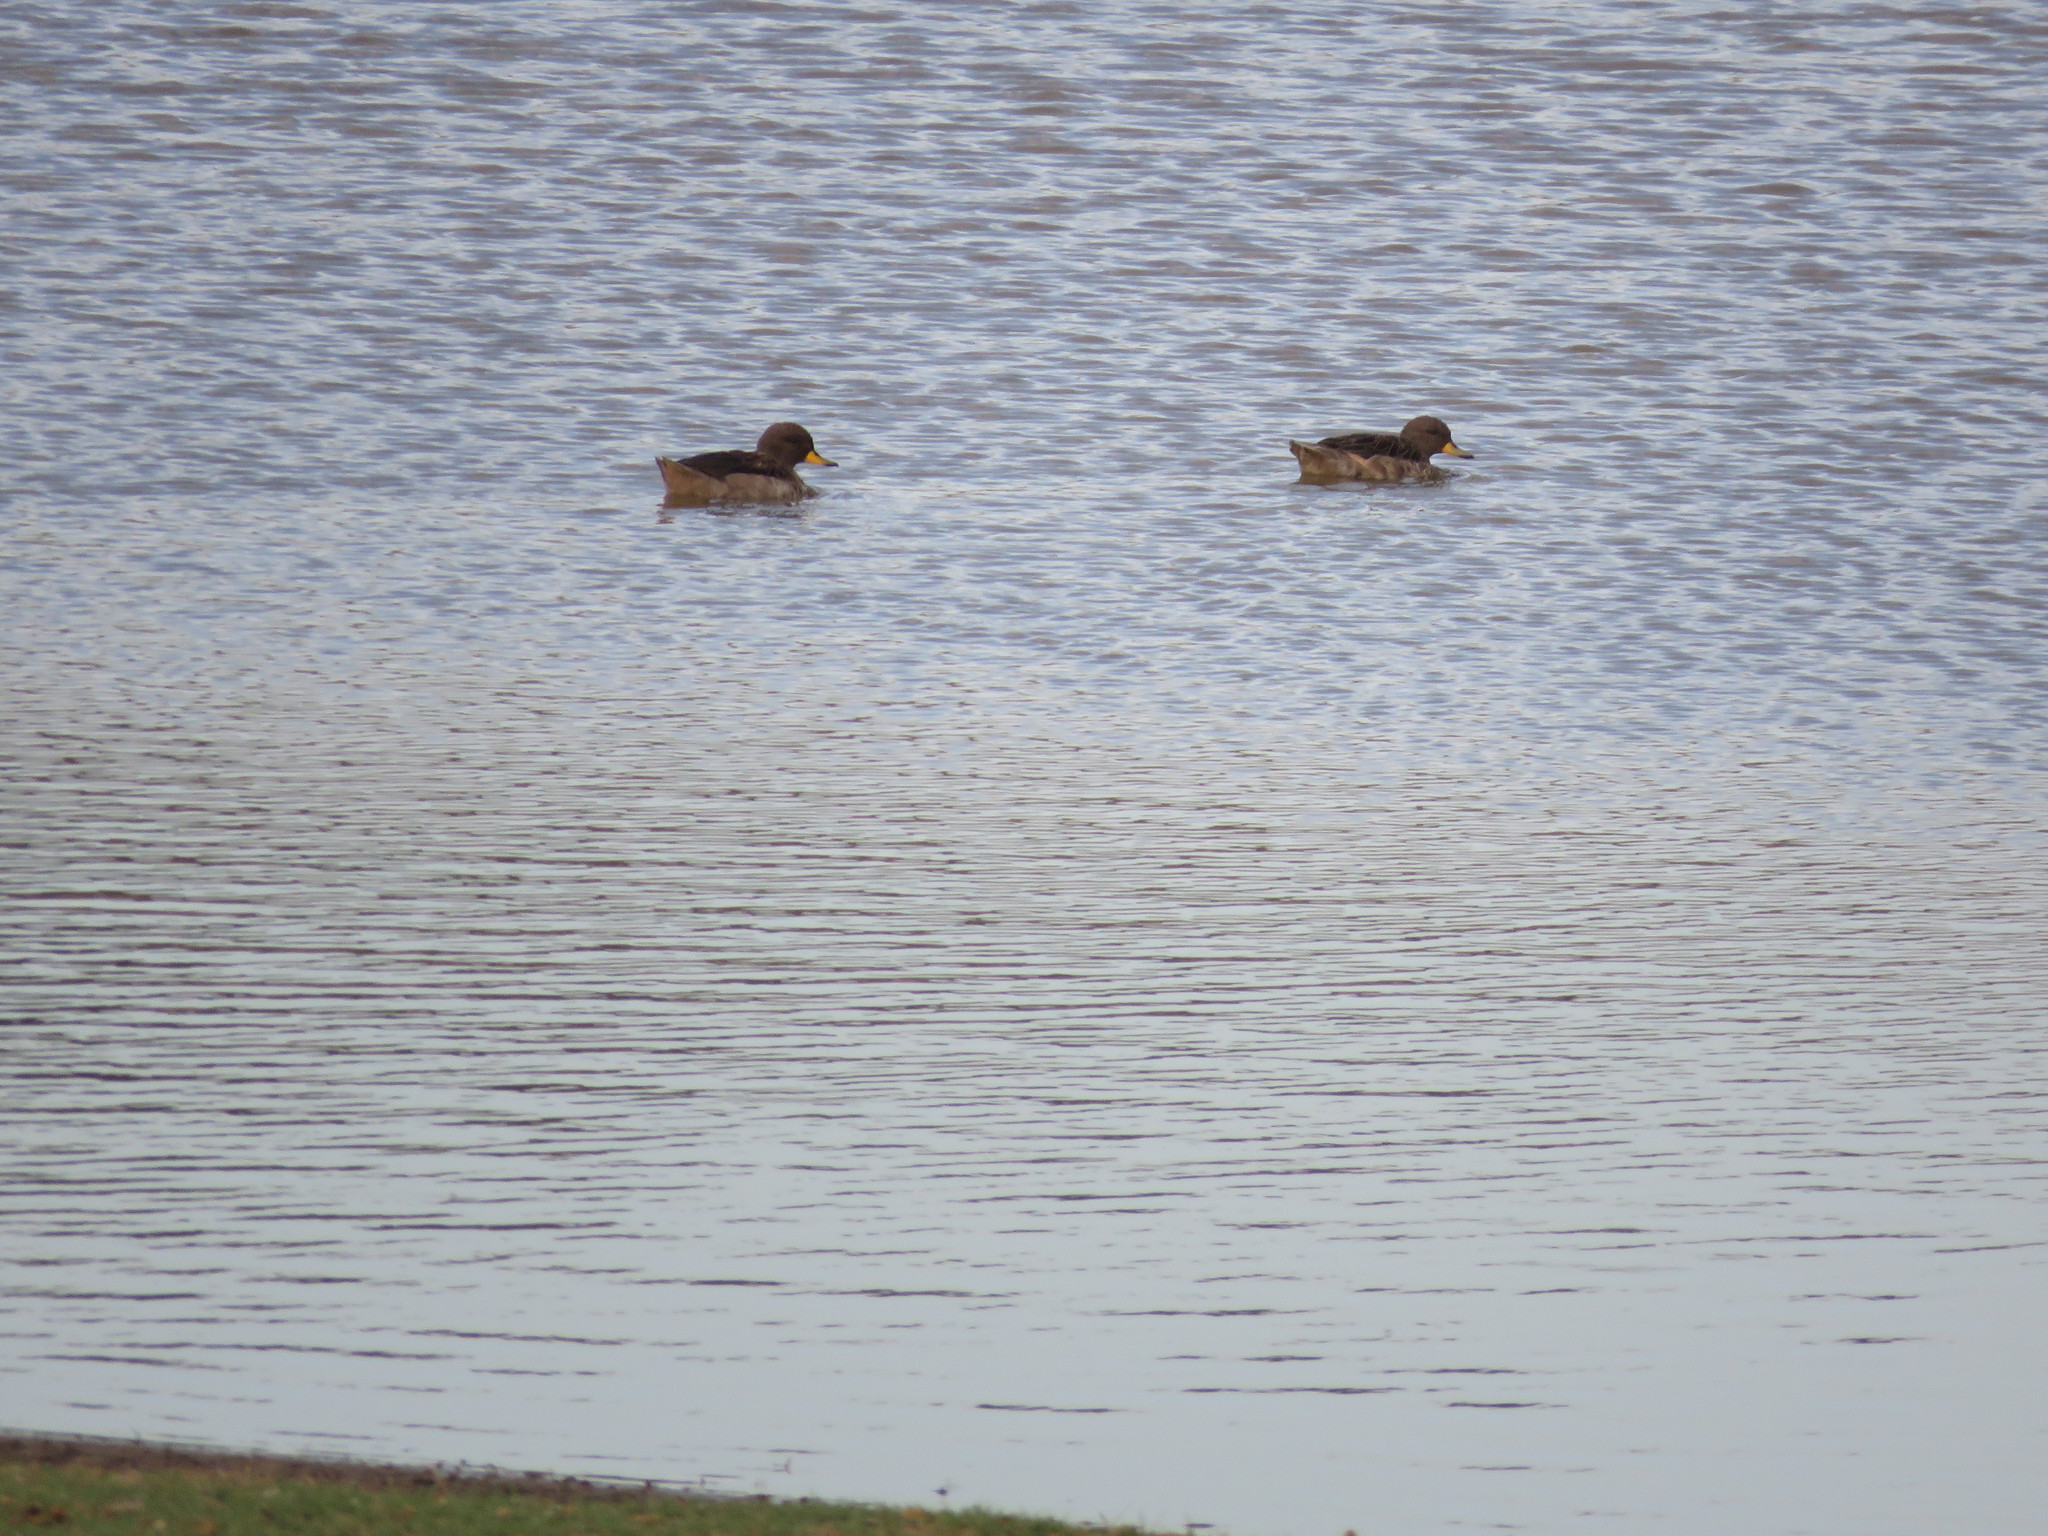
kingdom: Animalia
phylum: Chordata
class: Aves
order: Anseriformes
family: Anatidae
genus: Anas
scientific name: Anas flavirostris
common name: Yellow-billed teal
